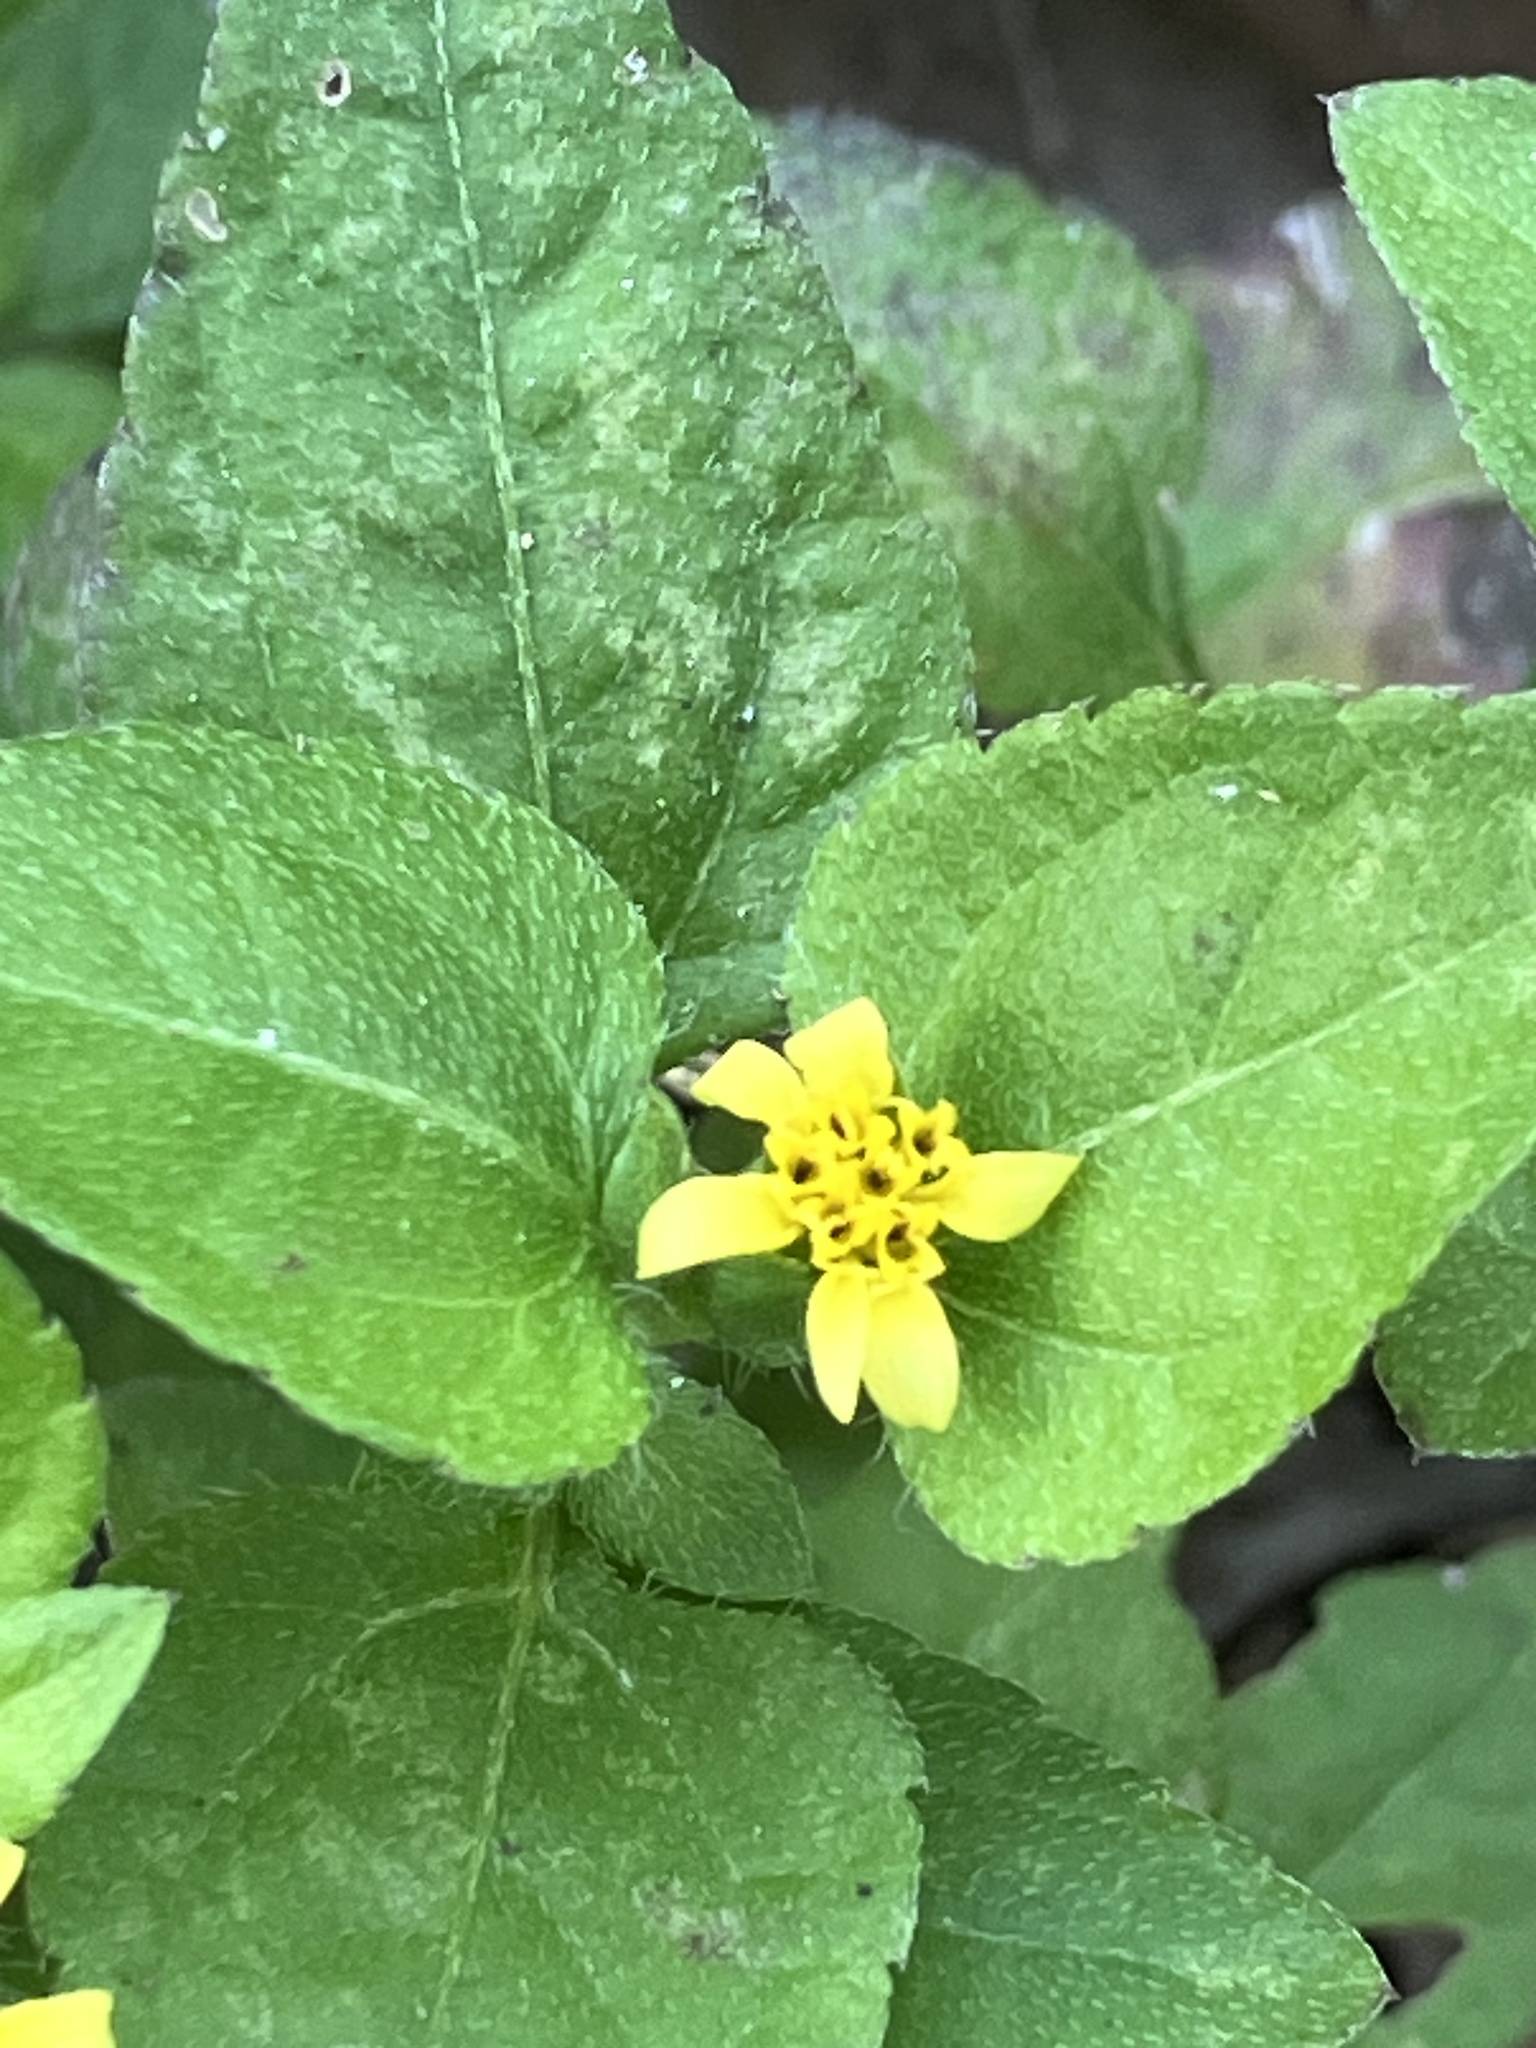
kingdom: Plantae
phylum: Tracheophyta
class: Magnoliopsida
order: Asterales
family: Asteraceae
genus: Calyptocarpus
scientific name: Calyptocarpus vialis
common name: Straggler daisy
